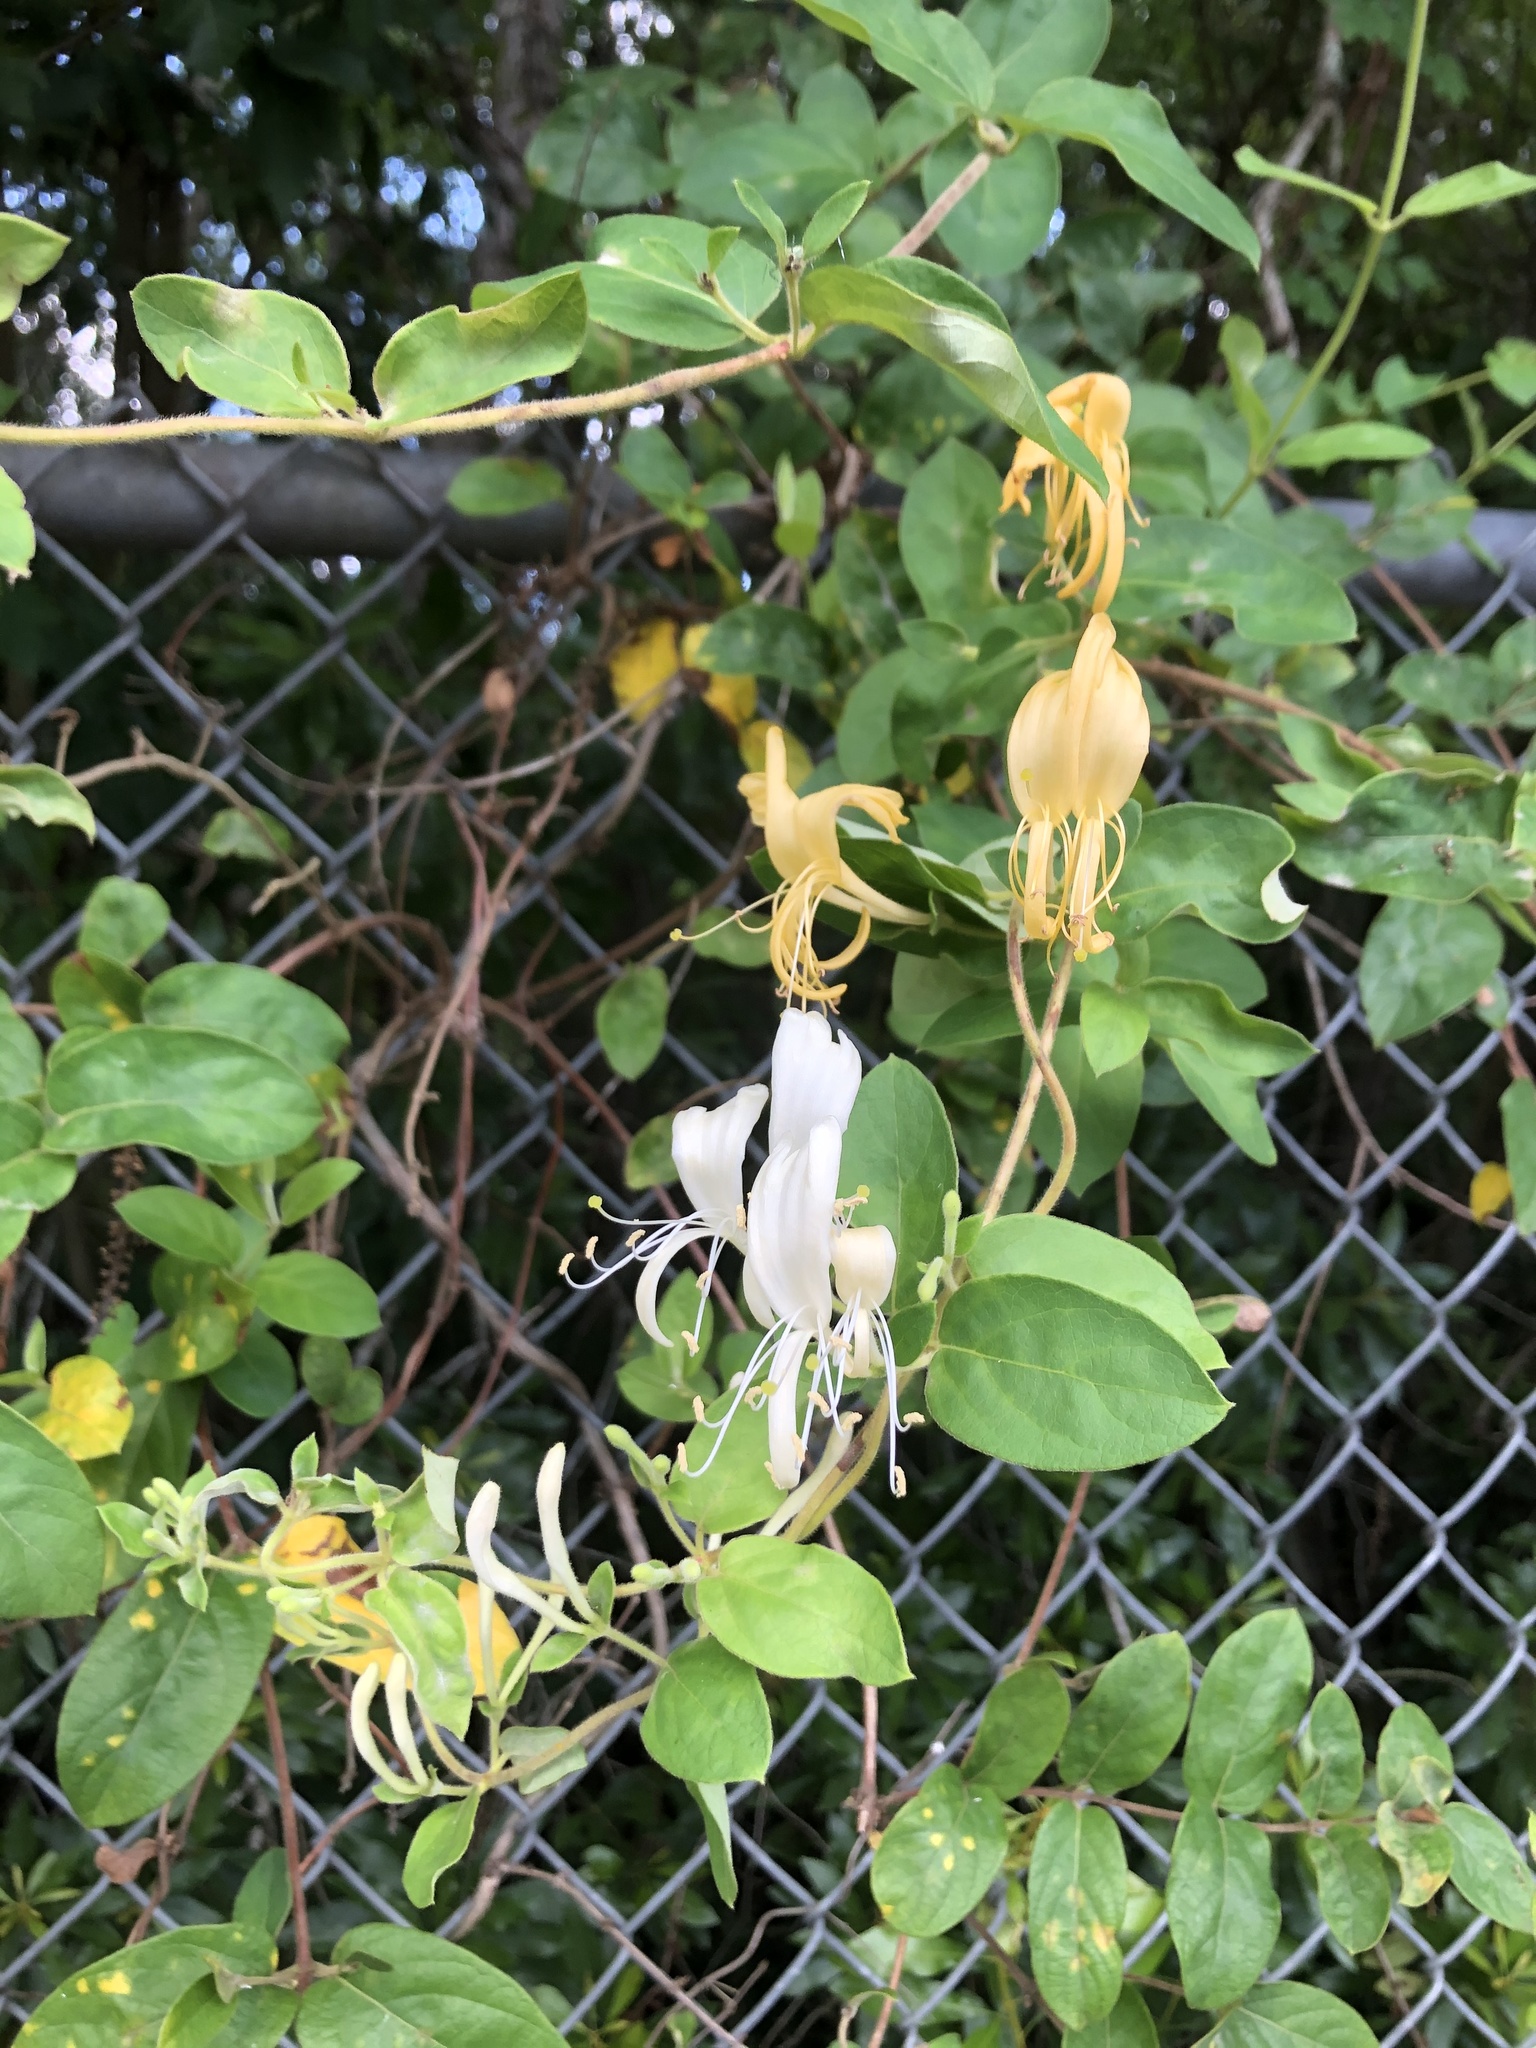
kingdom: Plantae
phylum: Tracheophyta
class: Magnoliopsida
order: Dipsacales
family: Caprifoliaceae
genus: Lonicera
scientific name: Lonicera japonica
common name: Japanese honeysuckle
